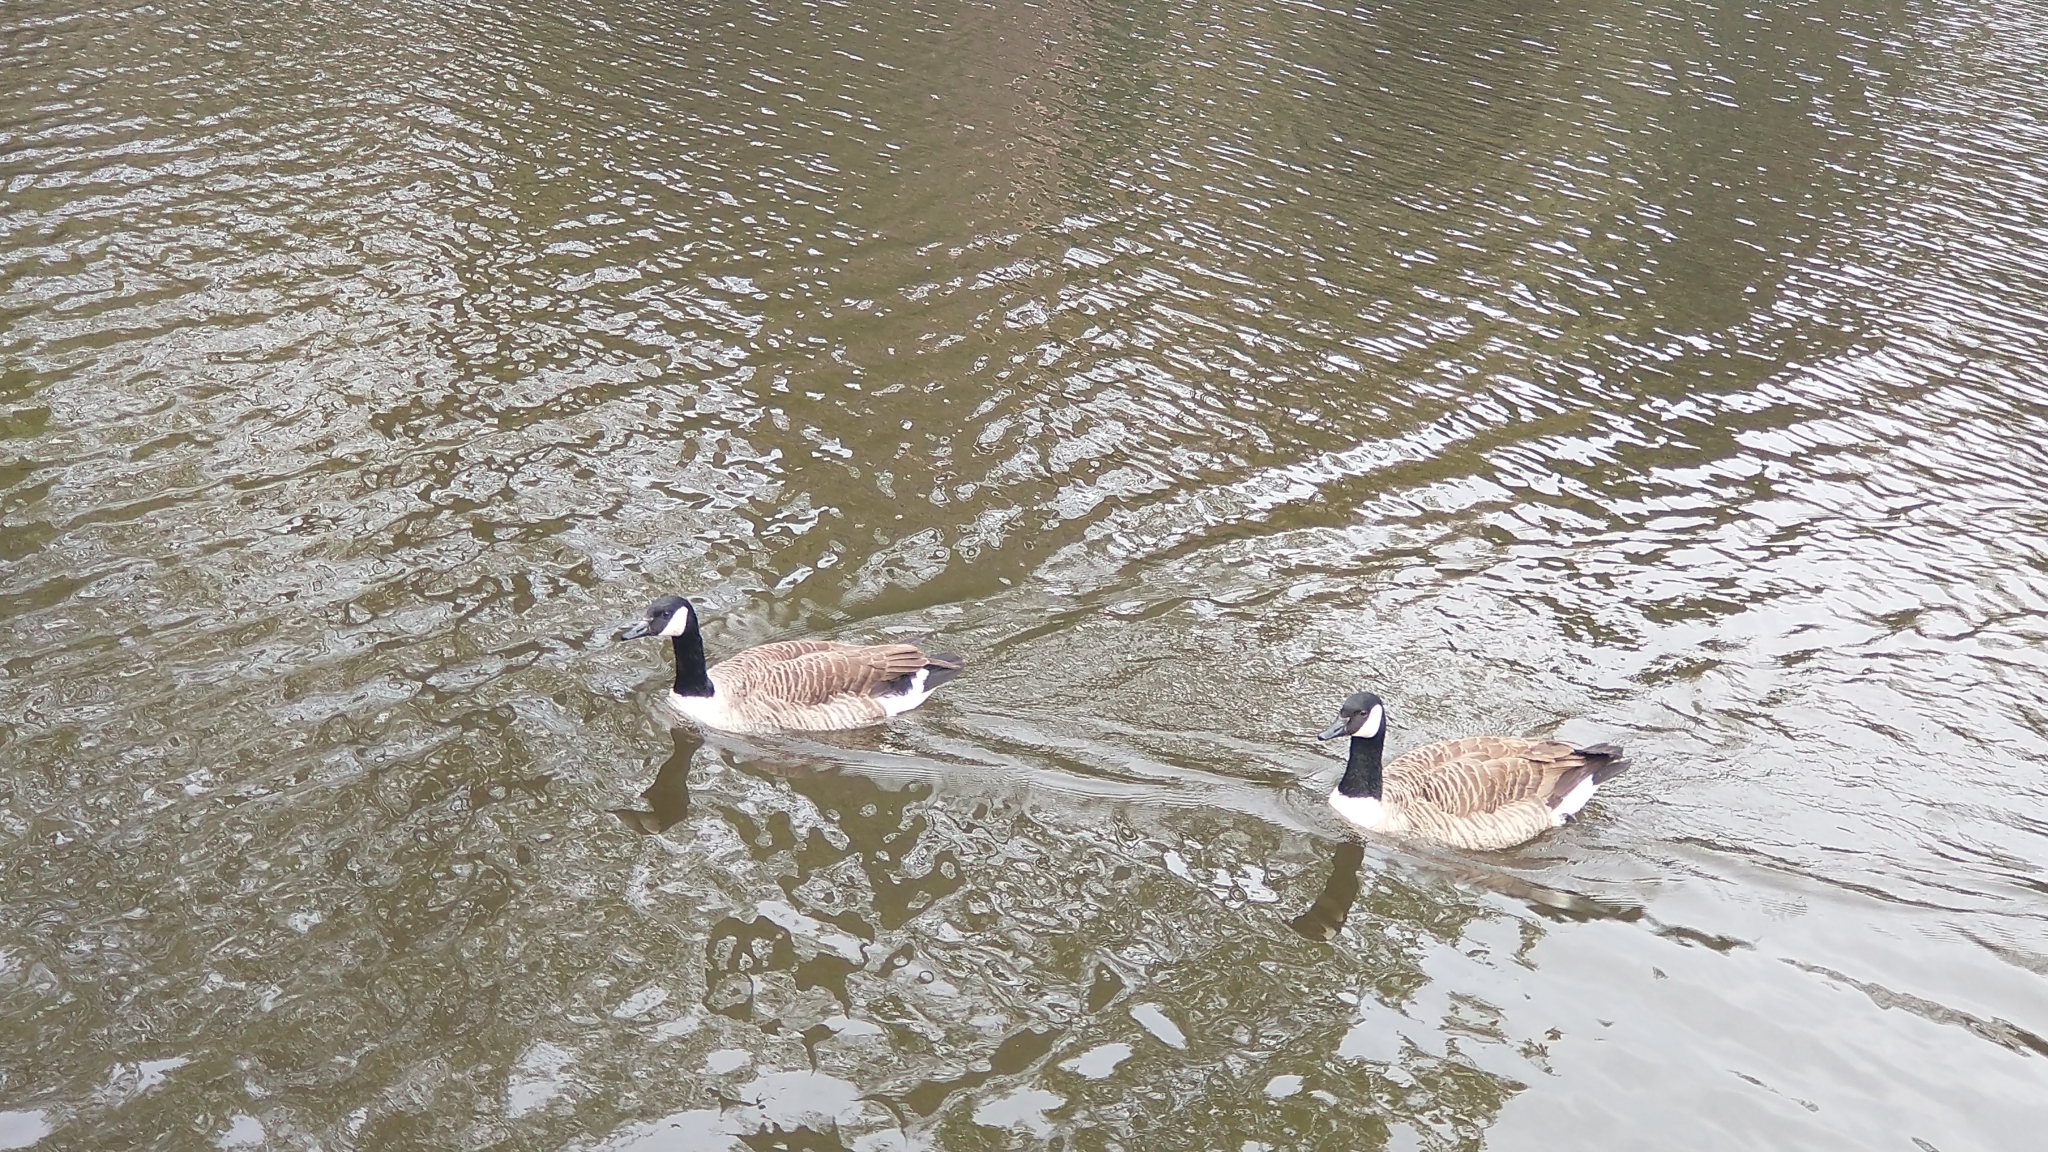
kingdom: Animalia
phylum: Chordata
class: Aves
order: Anseriformes
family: Anatidae
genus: Branta
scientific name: Branta canadensis
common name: Canada goose
